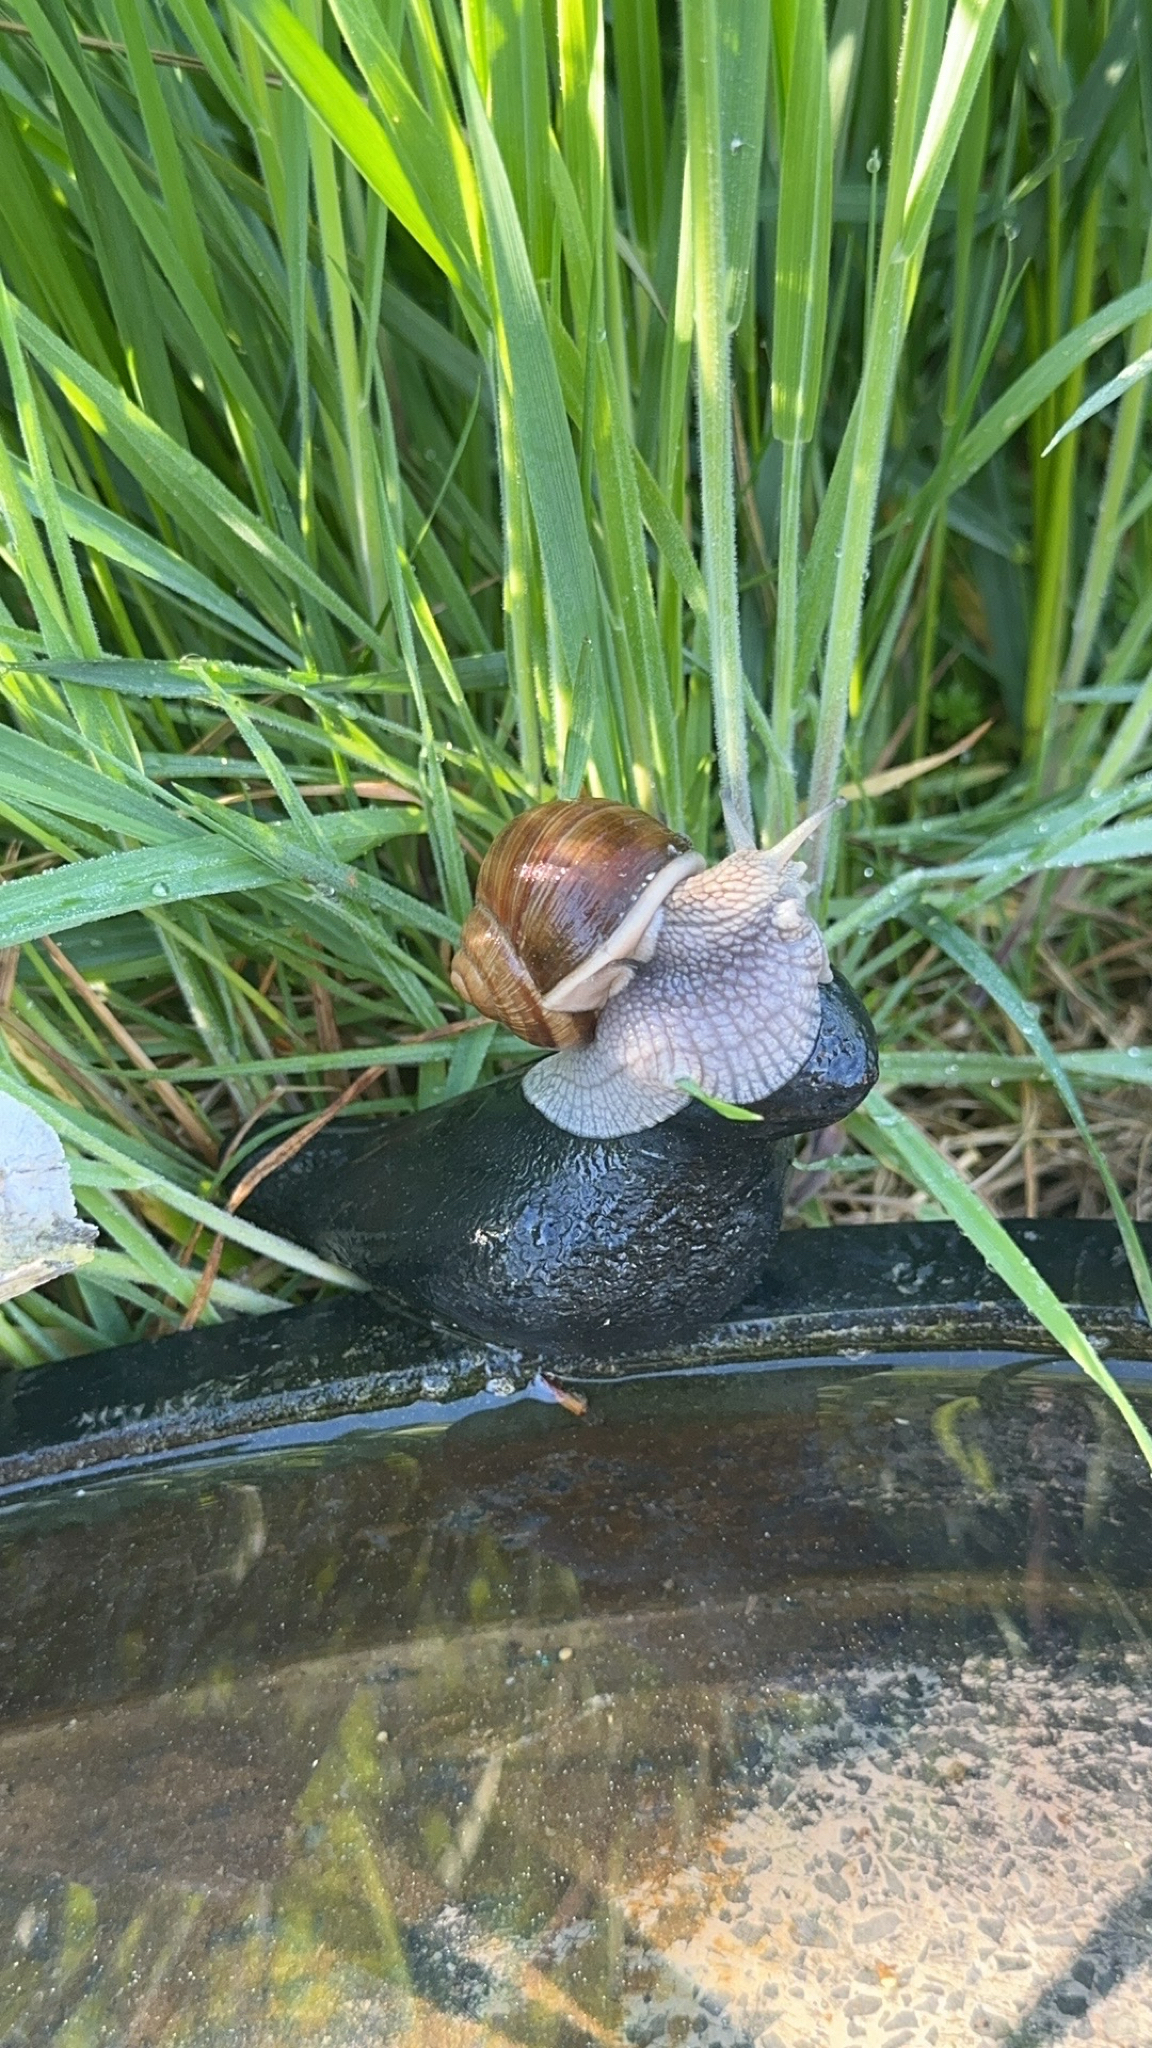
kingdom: Animalia
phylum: Mollusca
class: Gastropoda
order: Stylommatophora
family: Helicidae
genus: Helix
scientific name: Helix pomatia
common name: Roman snail
